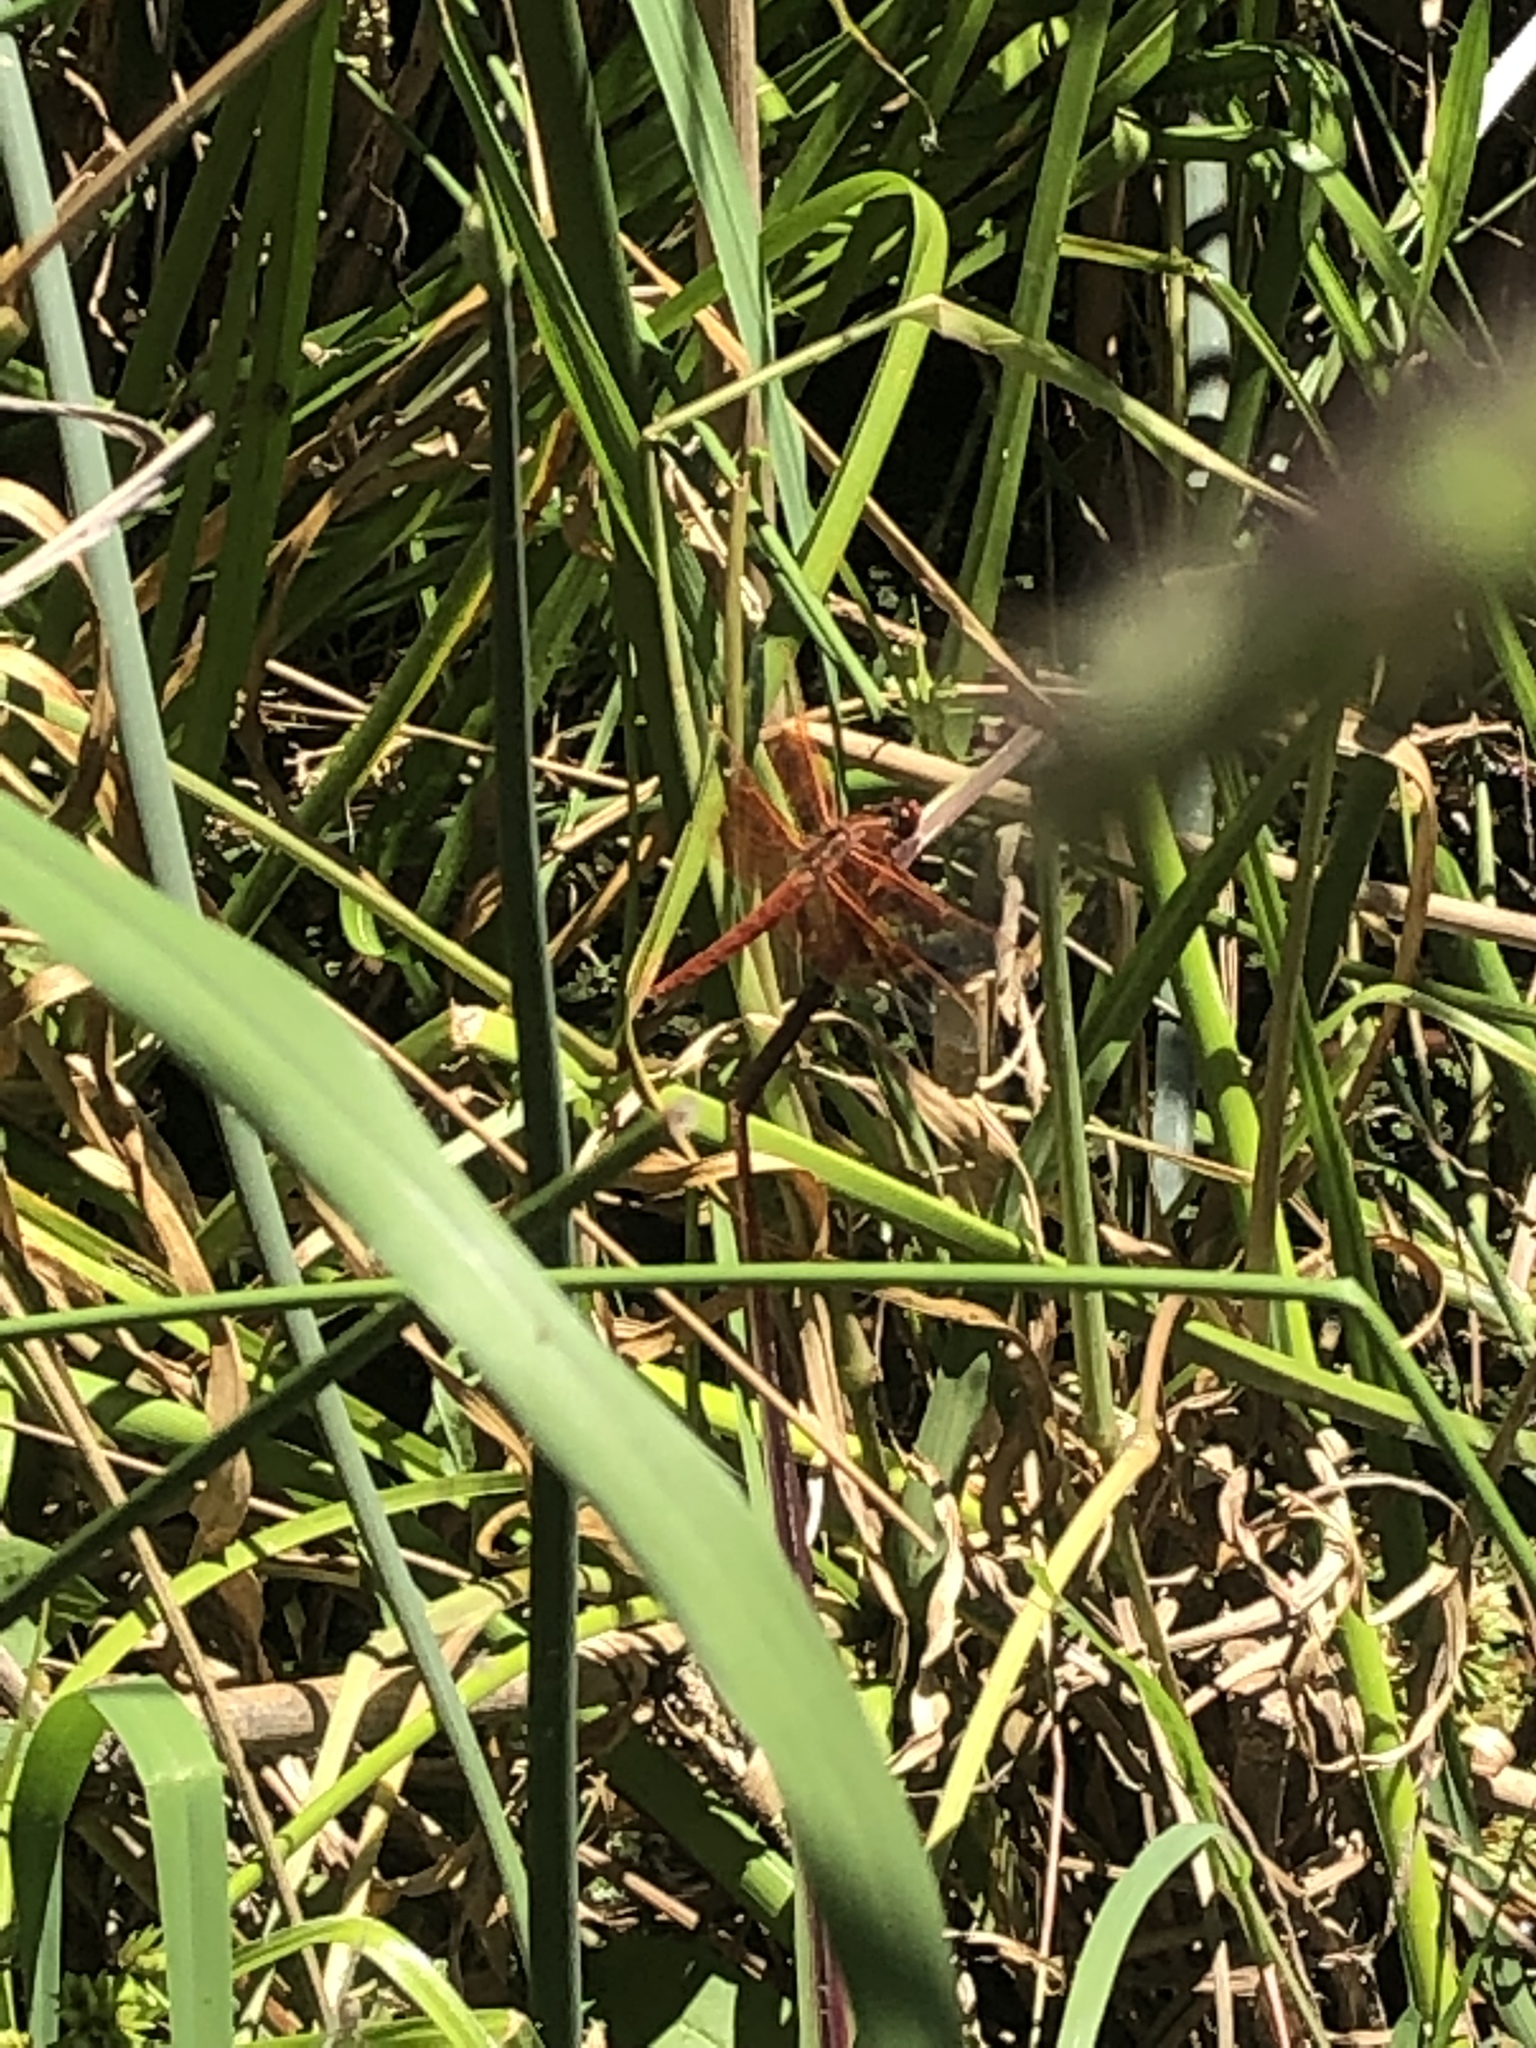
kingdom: Animalia
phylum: Arthropoda
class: Insecta
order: Odonata
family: Libellulidae
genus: Libellula
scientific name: Libellula saturata
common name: Flame skimmer
